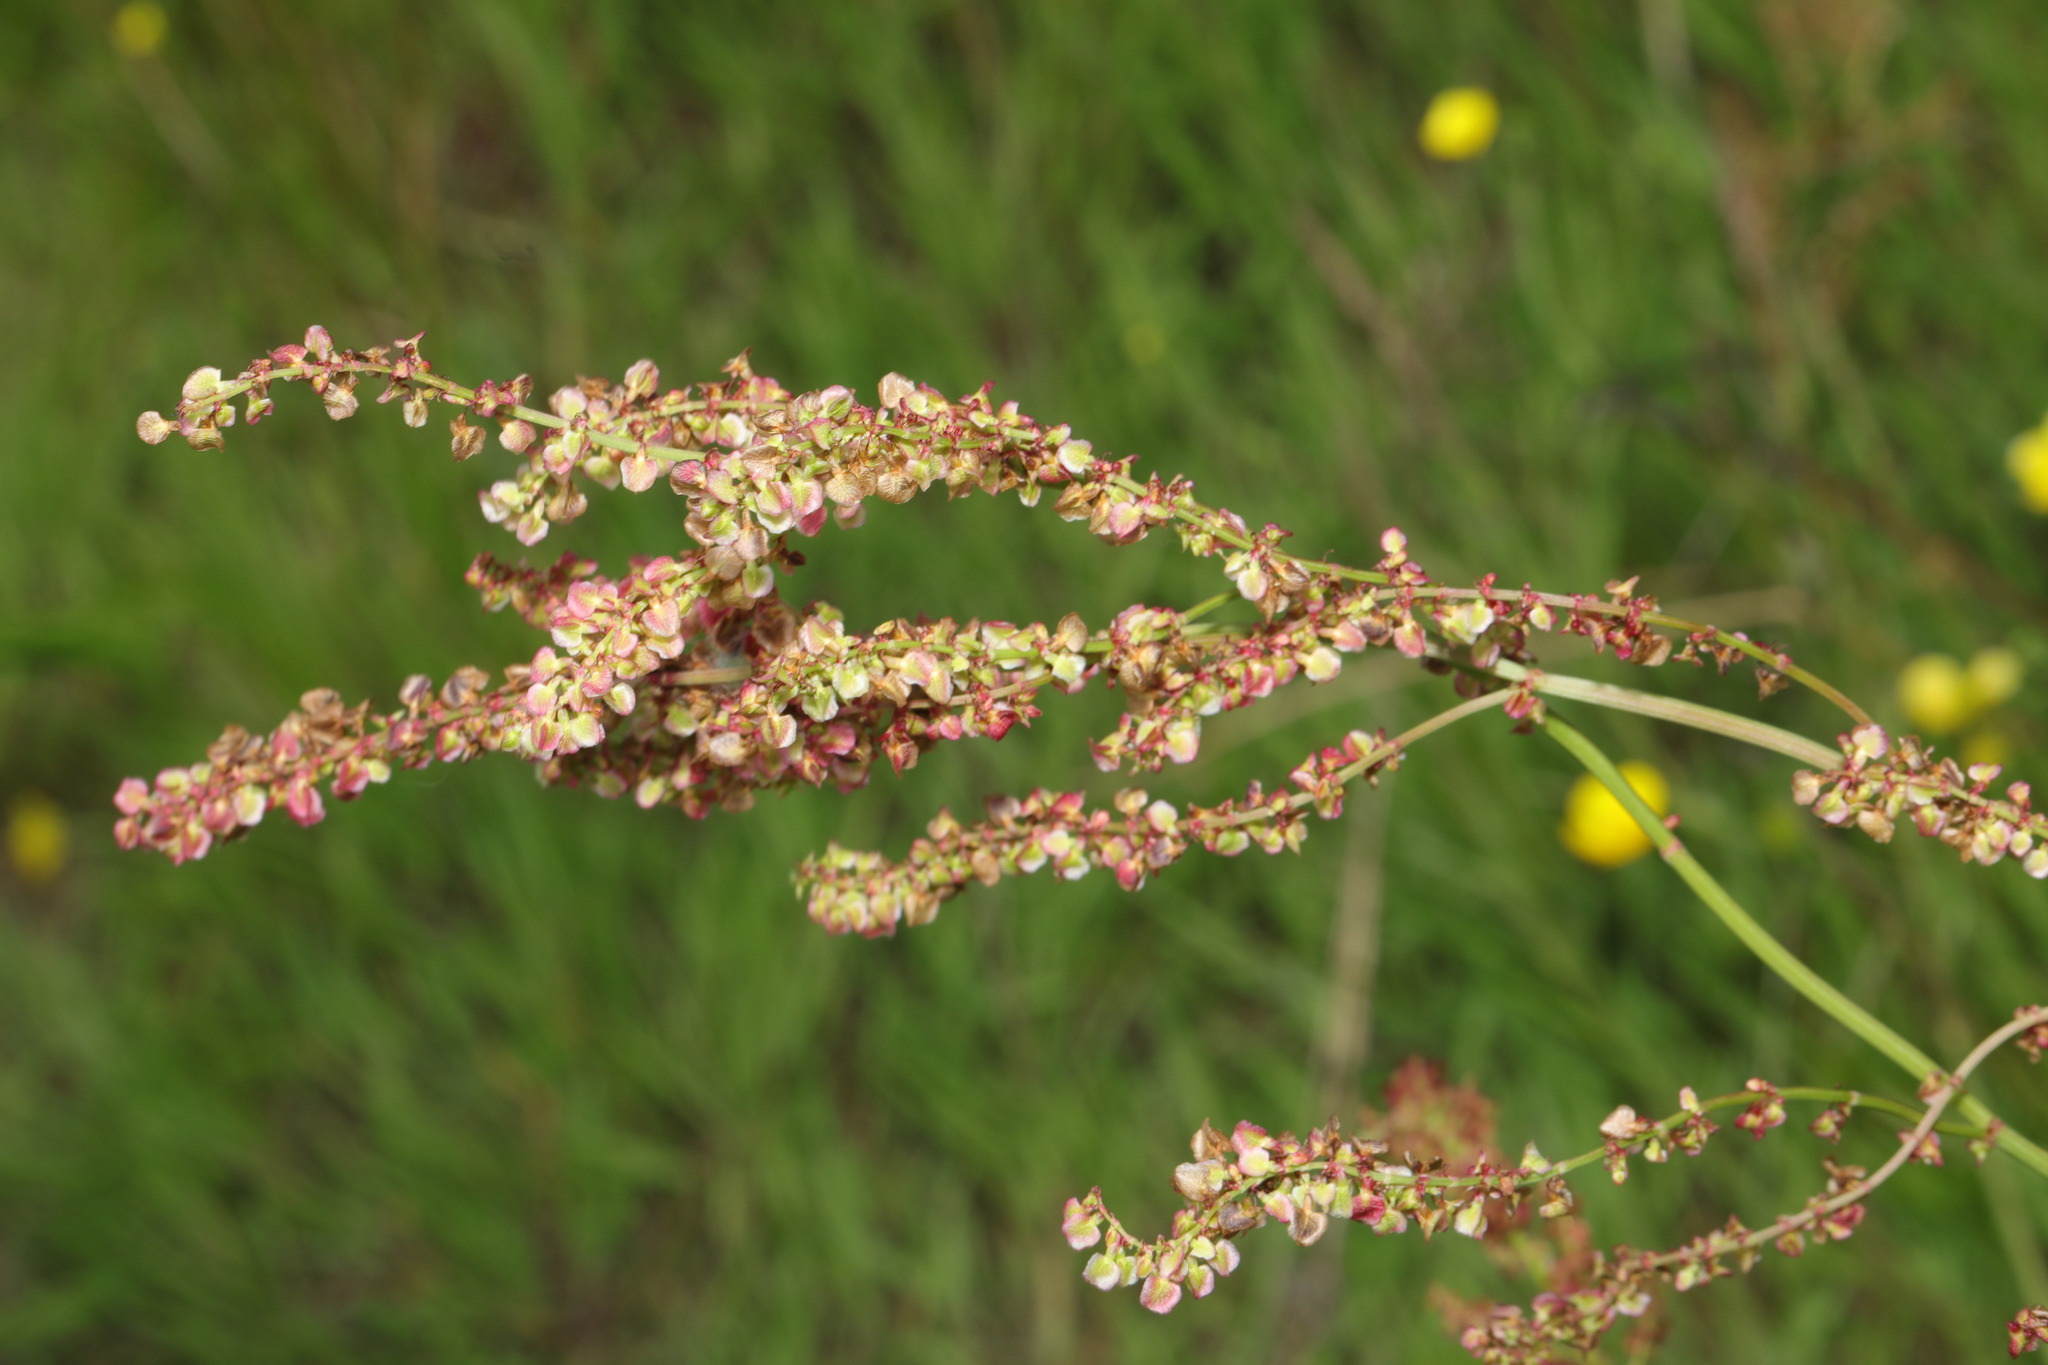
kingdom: Plantae
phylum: Tracheophyta
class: Magnoliopsida
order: Caryophyllales
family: Polygonaceae
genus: Rumex
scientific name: Rumex acetosa
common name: Garden sorrel
